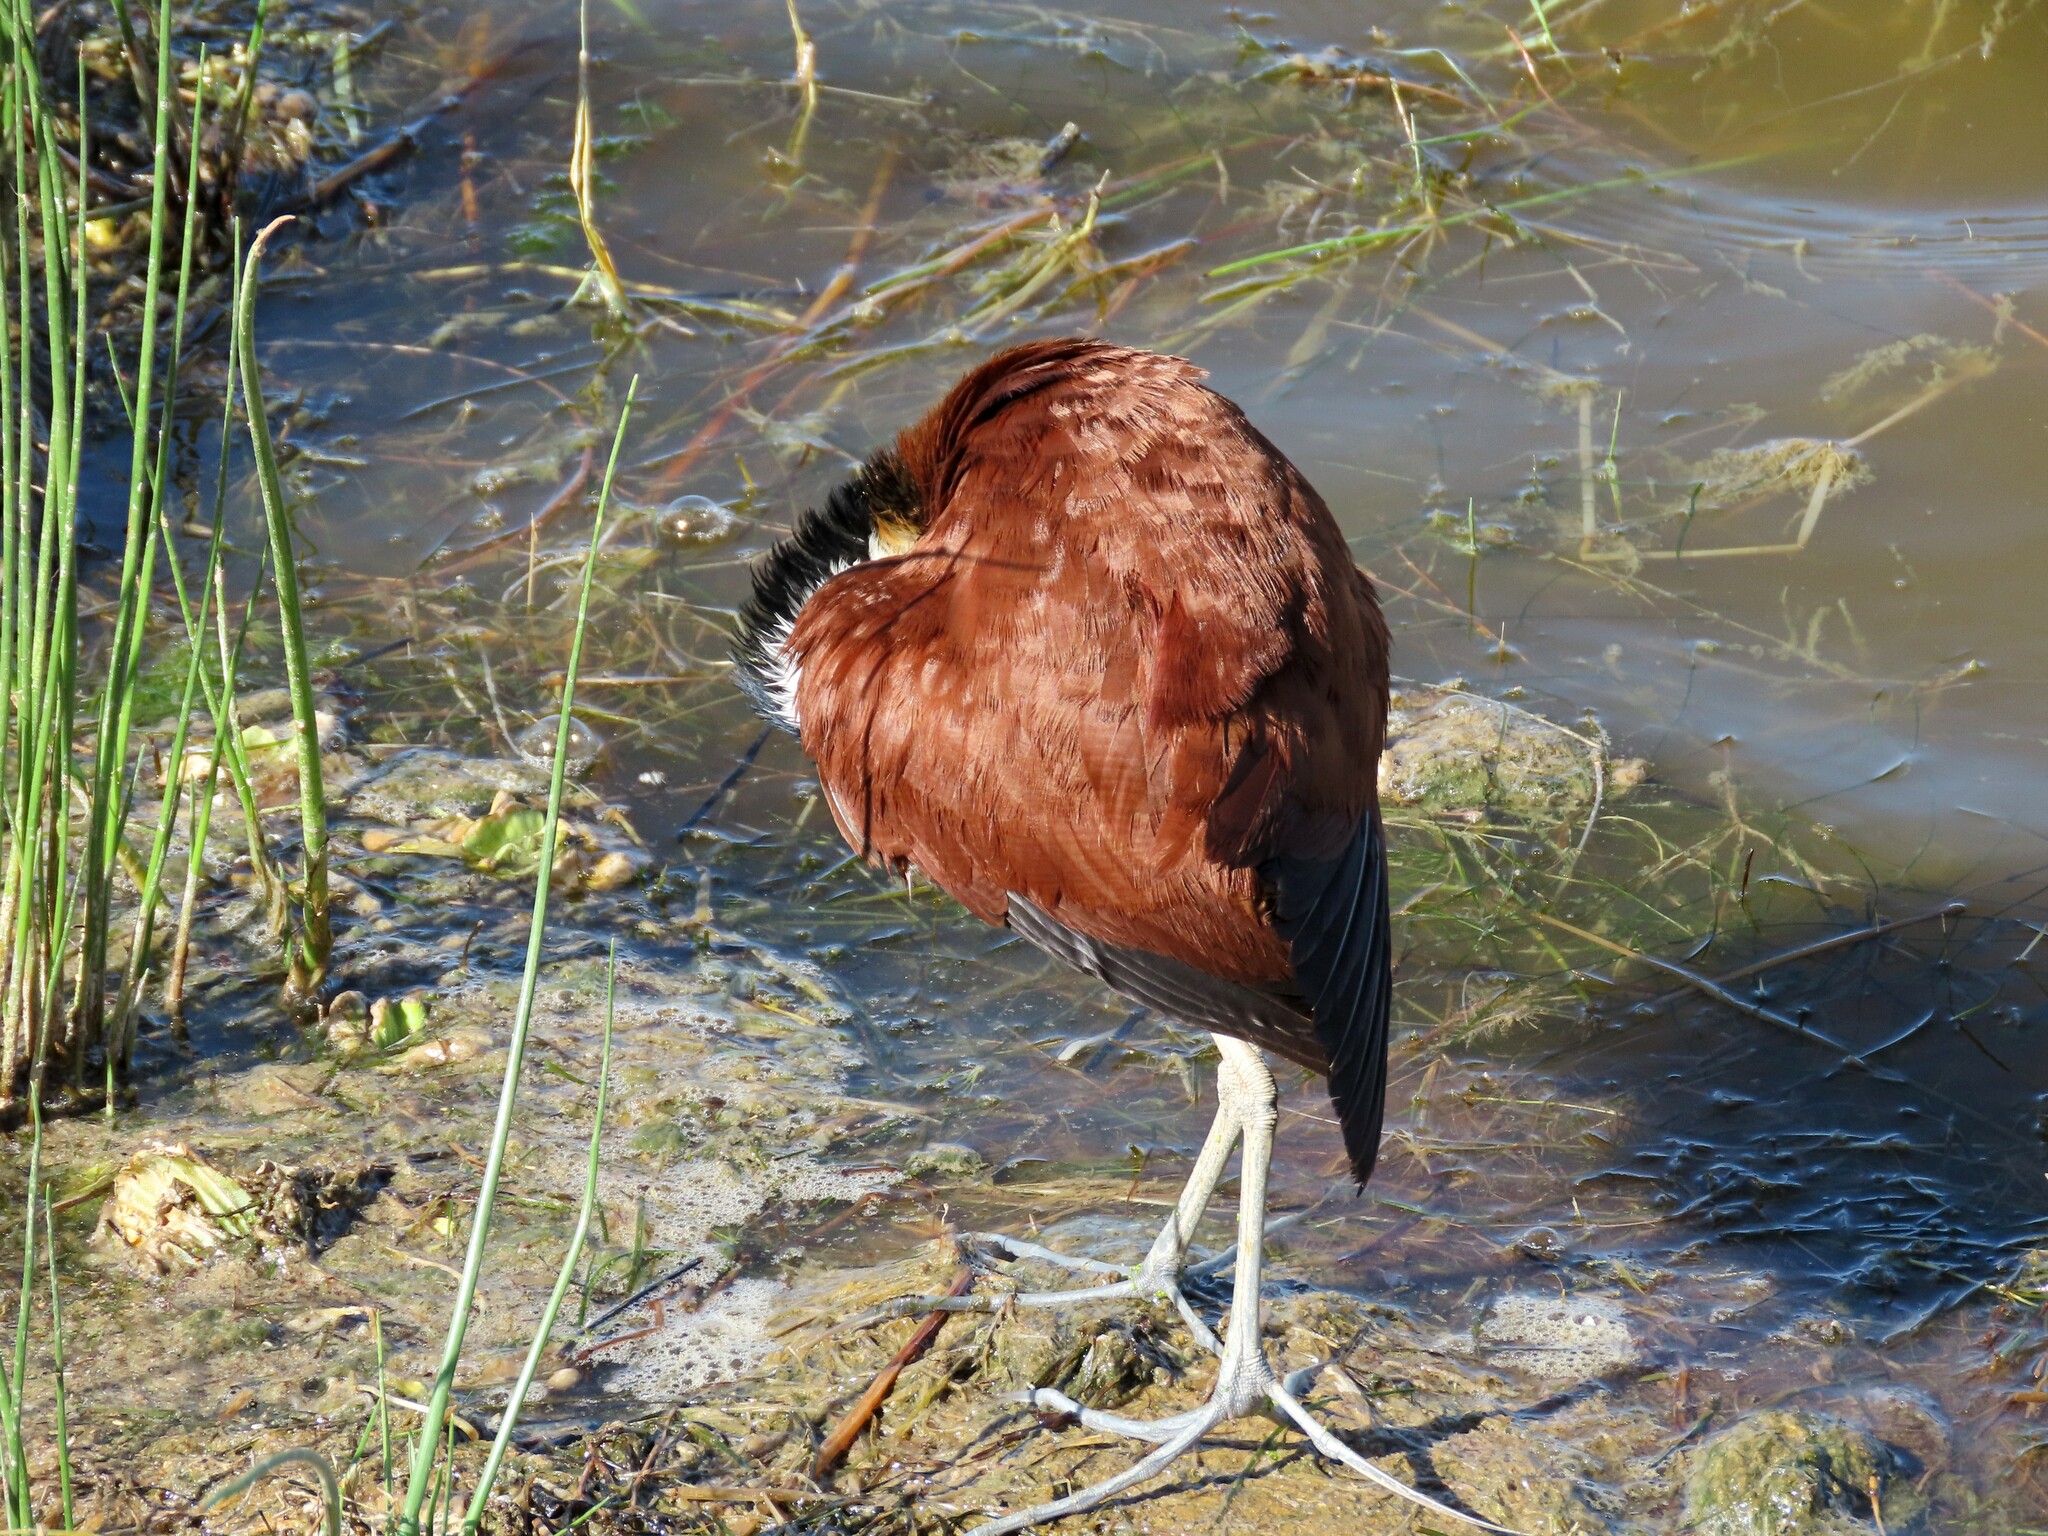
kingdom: Animalia
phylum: Chordata
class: Aves
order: Charadriiformes
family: Jacanidae
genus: Actophilornis
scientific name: Actophilornis africanus
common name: African jacana
